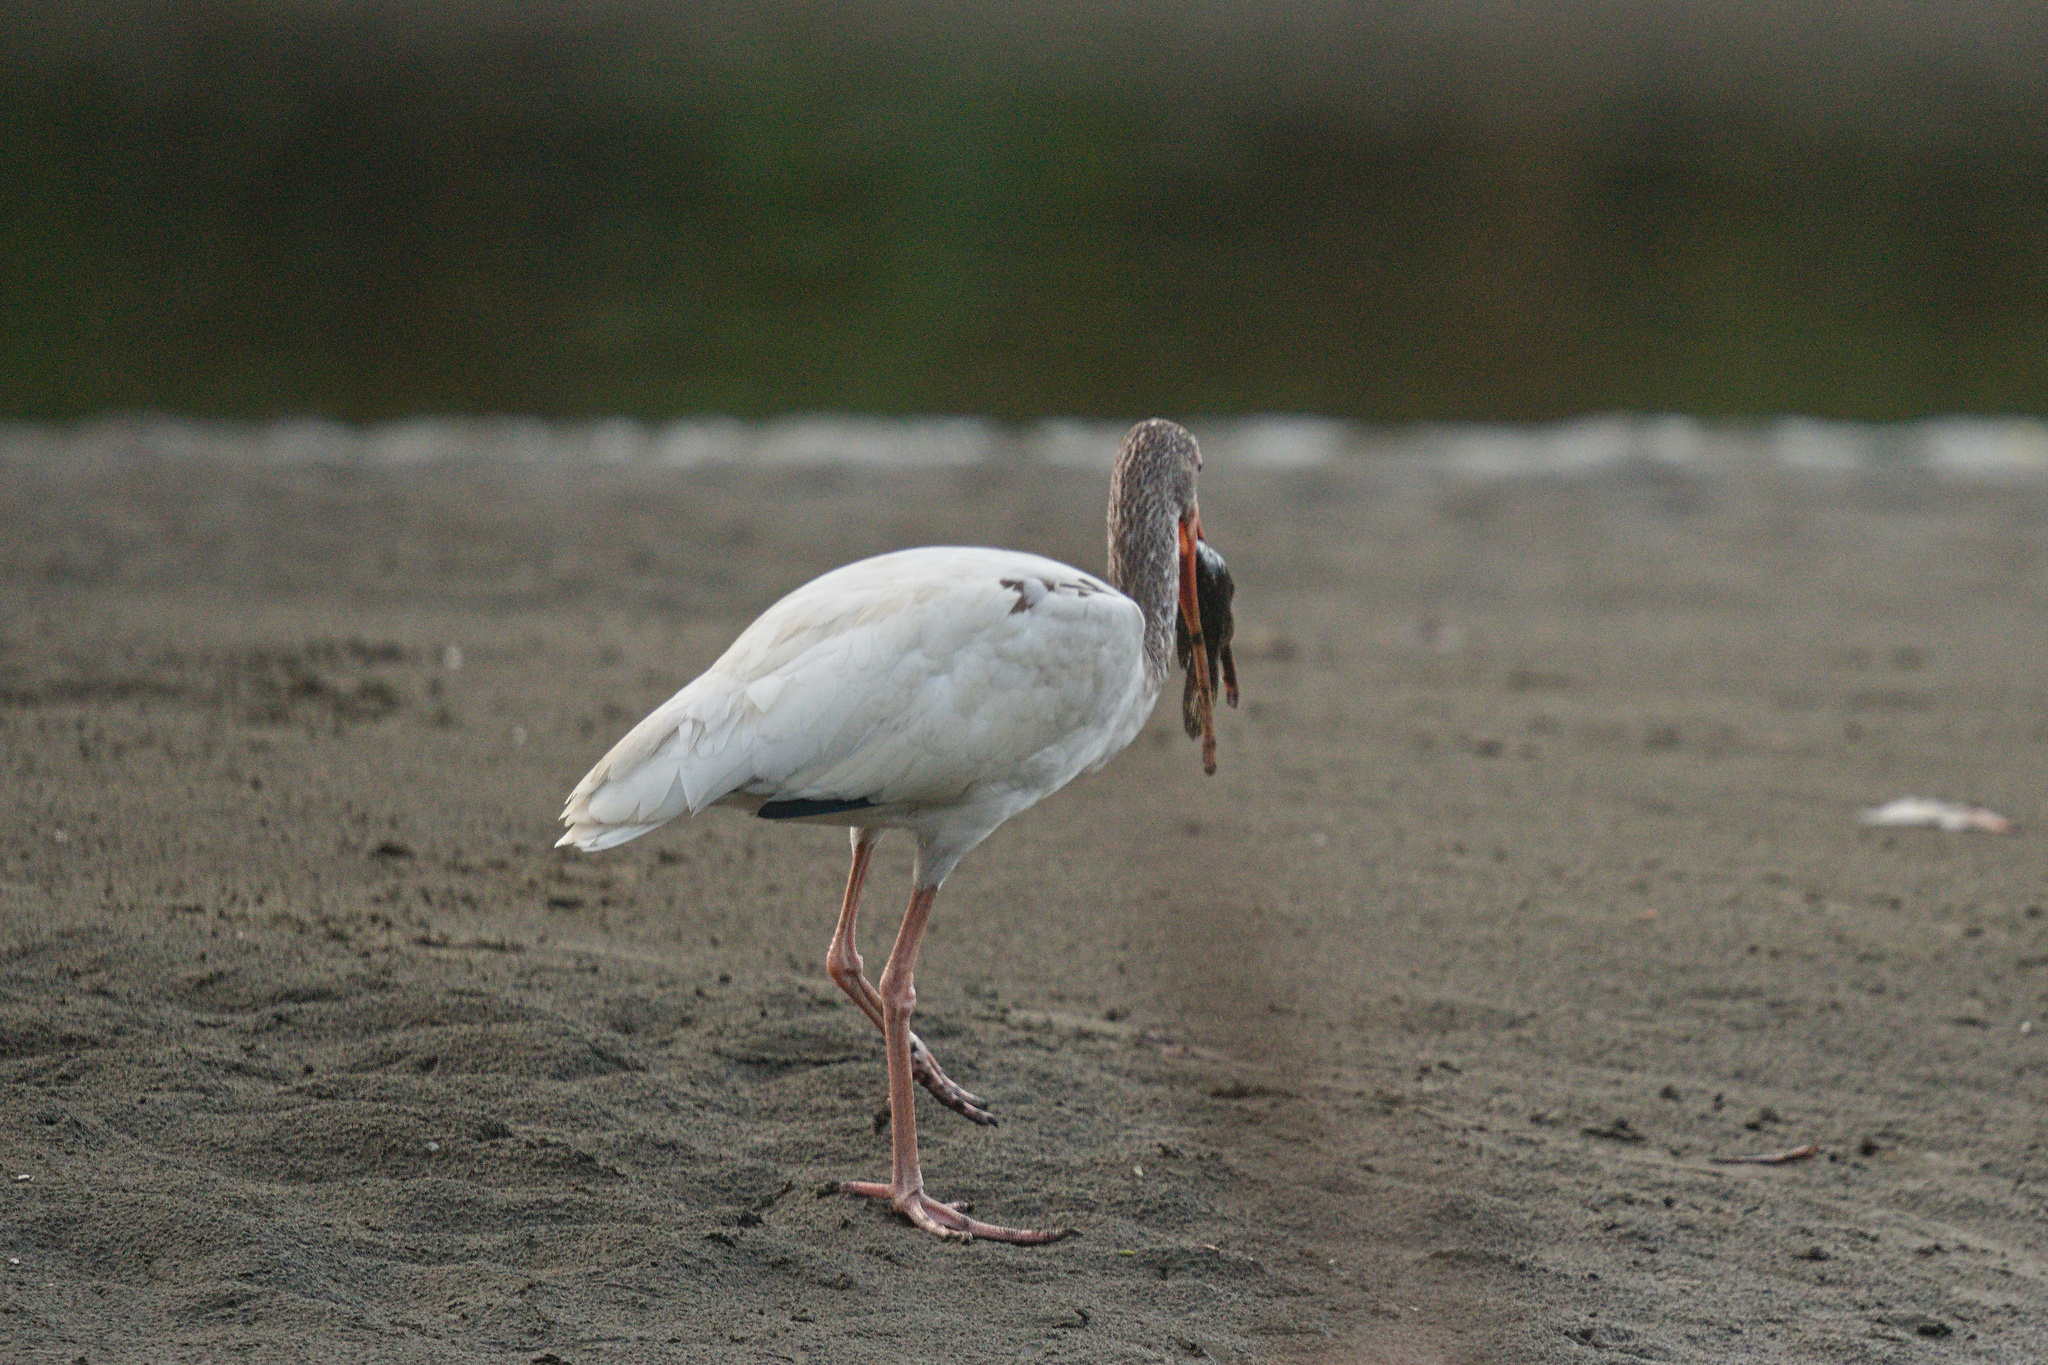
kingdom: Animalia
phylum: Chordata
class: Aves
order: Pelecaniformes
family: Threskiornithidae
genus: Eudocimus
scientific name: Eudocimus albus
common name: White ibis
